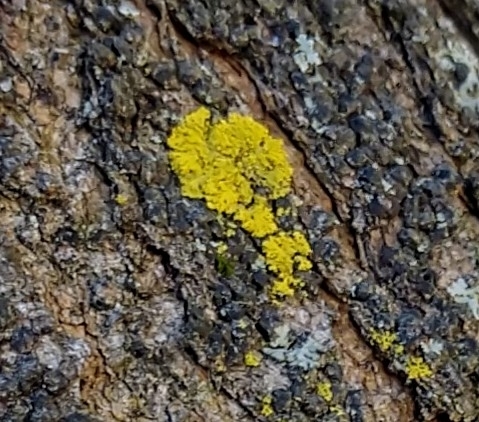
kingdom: Fungi
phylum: Ascomycota
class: Candelariomycetes
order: Candelariales
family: Candelariaceae
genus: Candelaria
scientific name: Candelaria concolor
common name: Candleflame lichen
